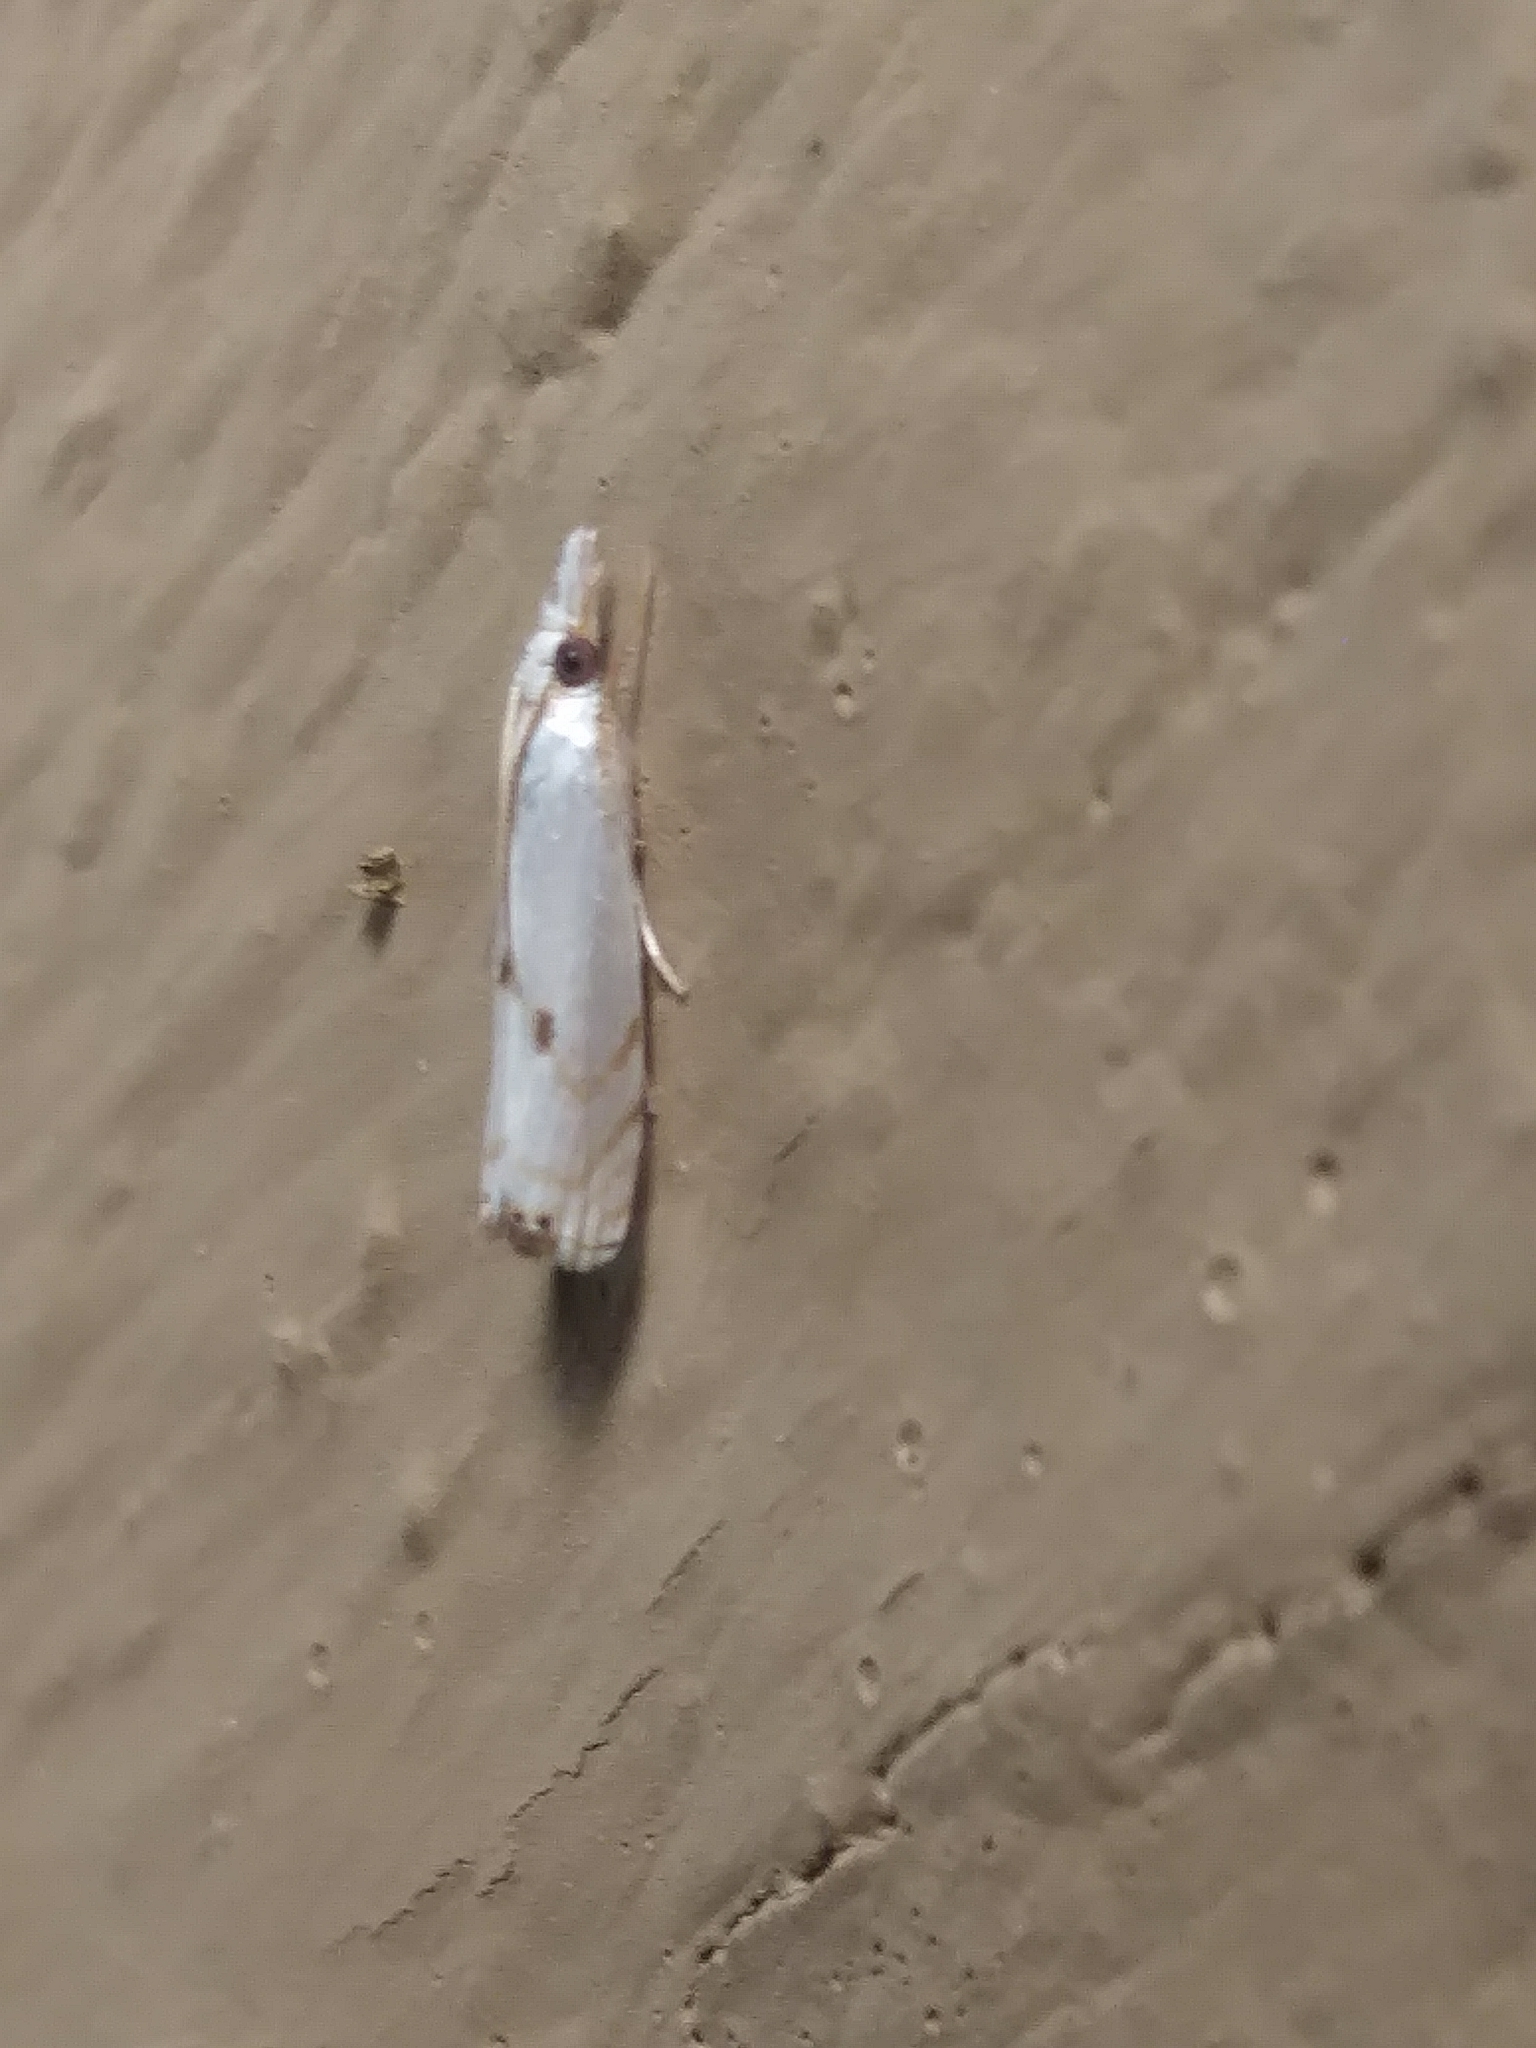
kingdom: Animalia
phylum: Arthropoda
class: Insecta
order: Lepidoptera
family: Crambidae
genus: Microcrambus
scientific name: Microcrambus biguttellus
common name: Gold-stripe grass-veneer moth
